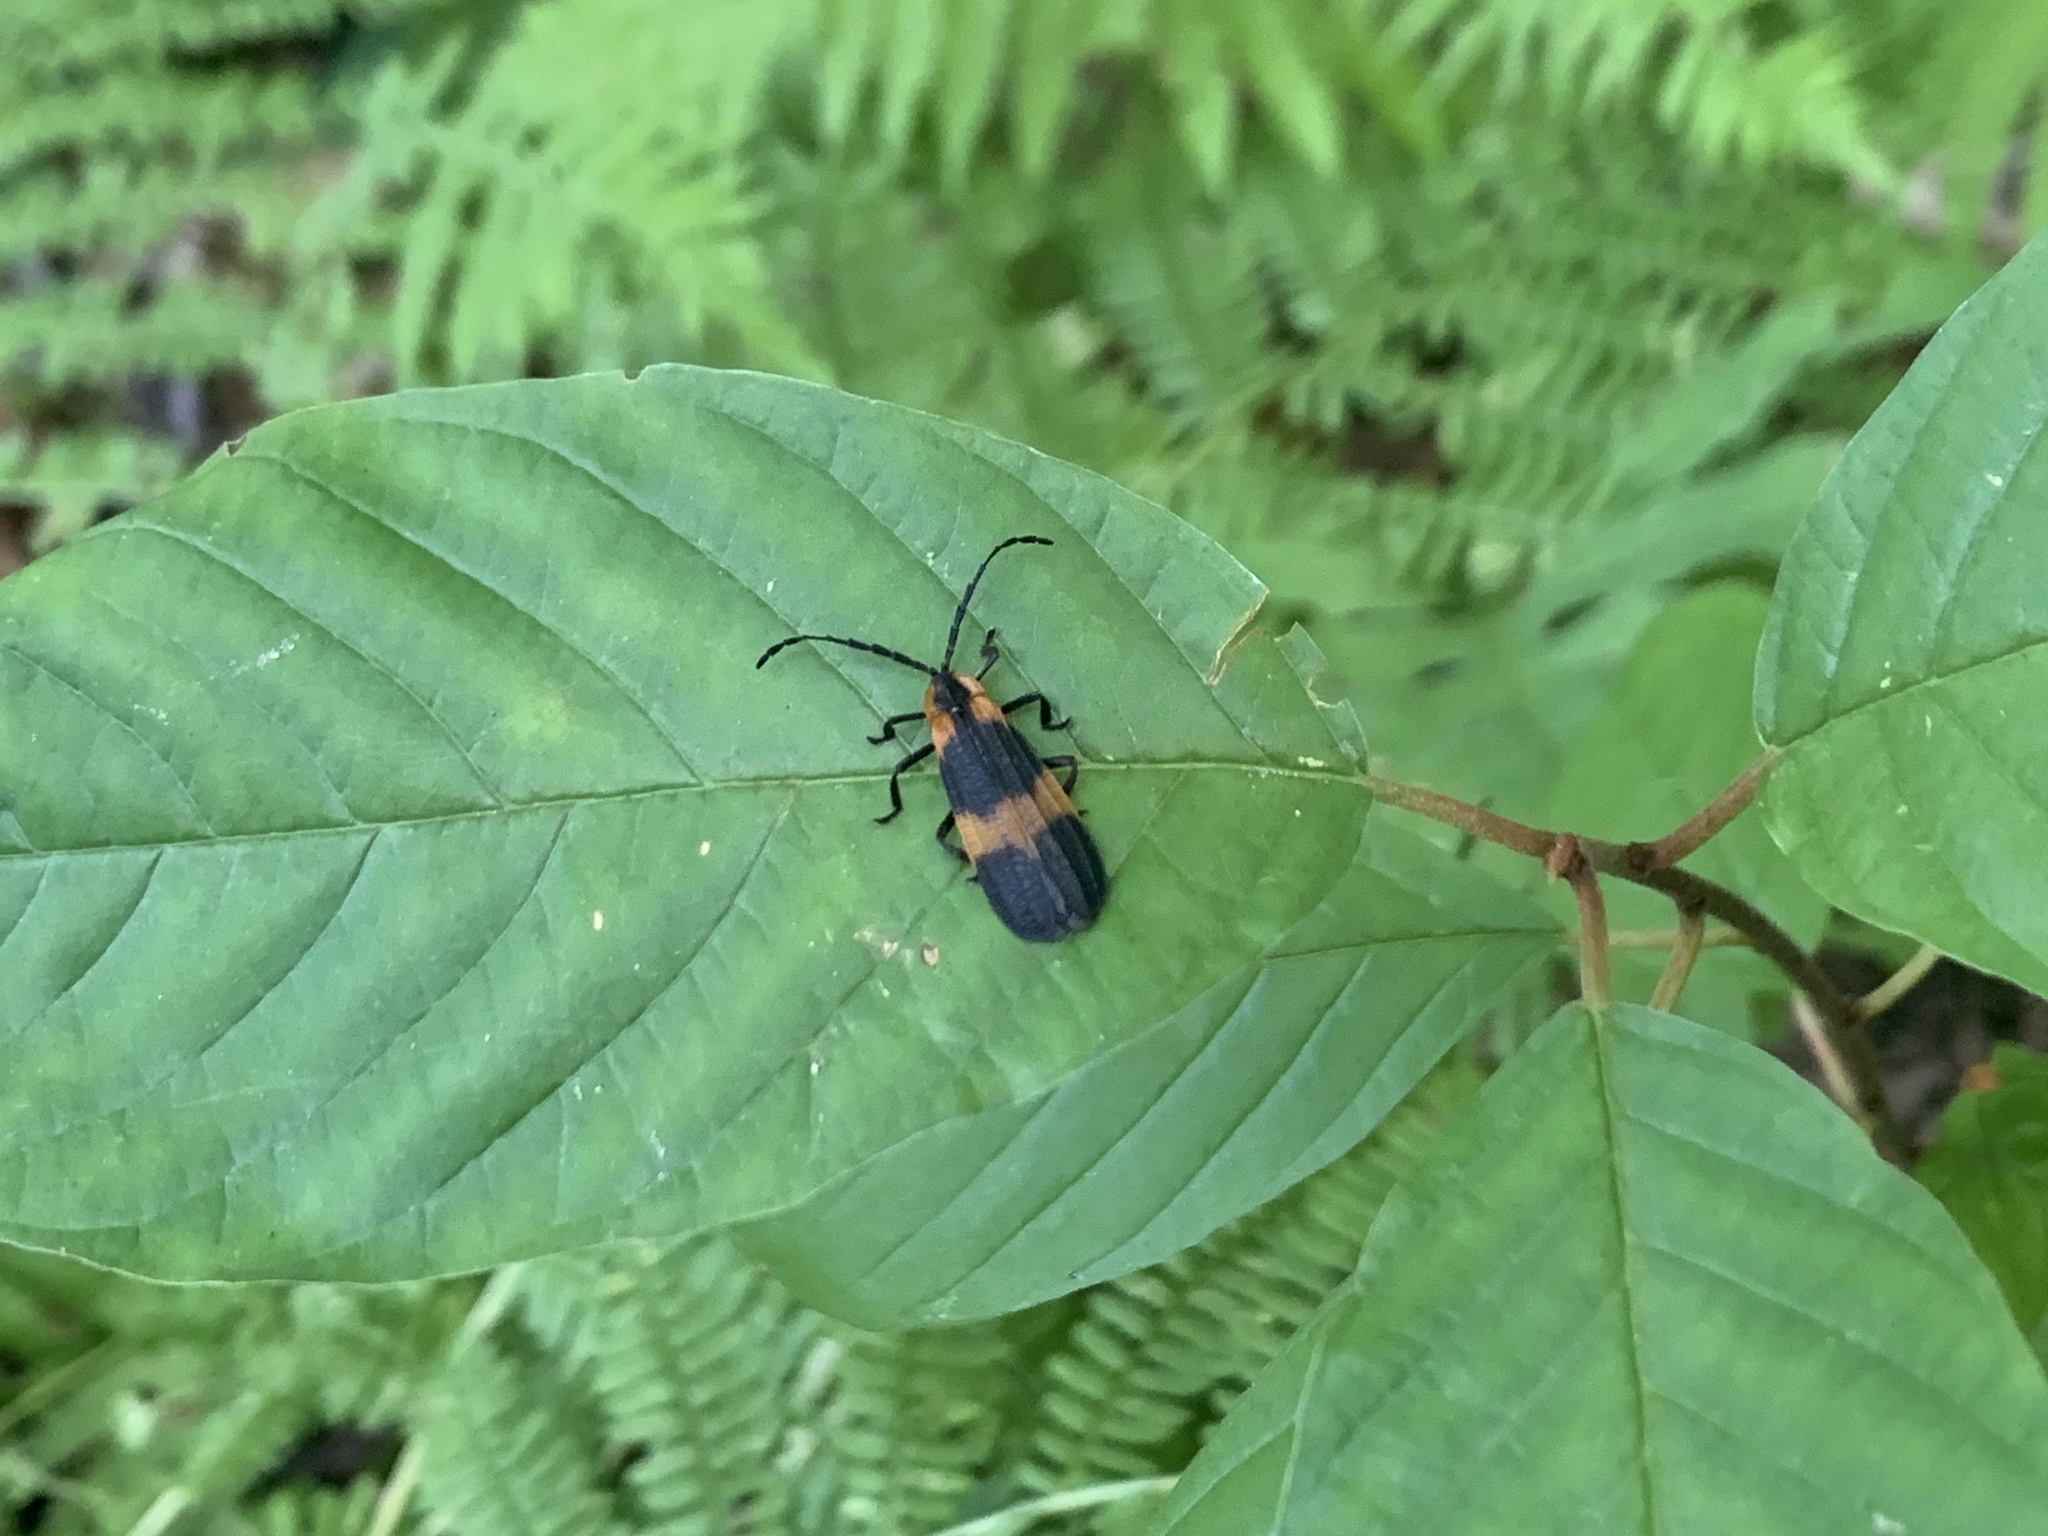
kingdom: Animalia
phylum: Arthropoda
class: Insecta
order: Coleoptera
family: Lycidae
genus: Calopteron
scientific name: Calopteron reticulatum
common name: Banded net-winged beetle
